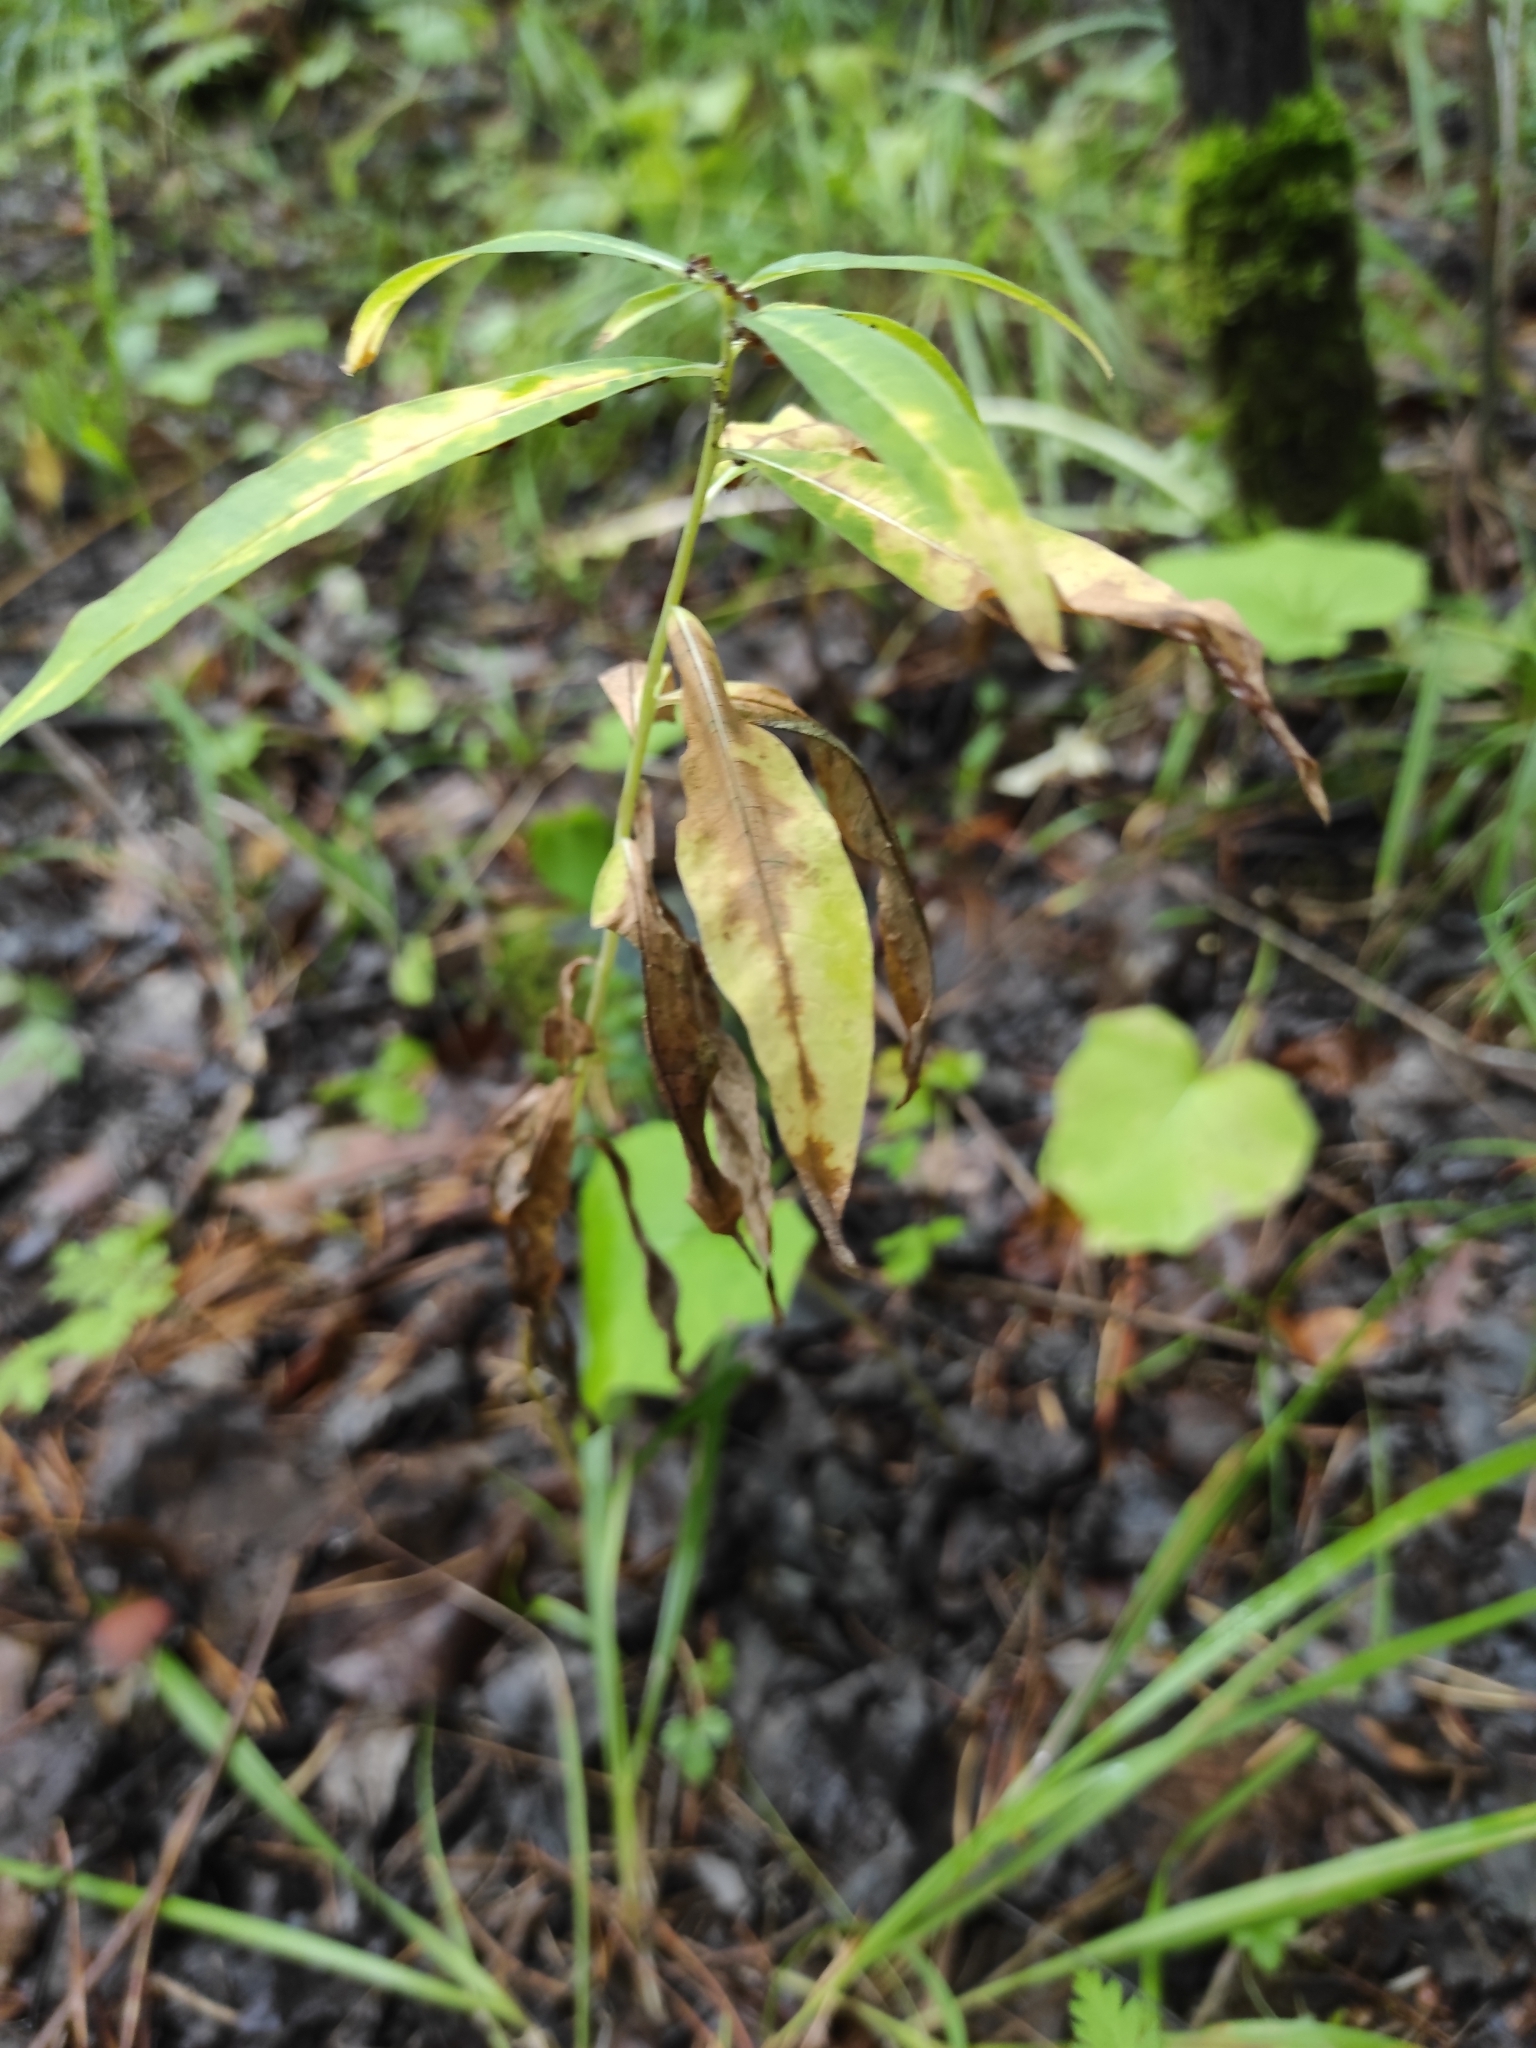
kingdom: Plantae
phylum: Tracheophyta
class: Magnoliopsida
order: Myrtales
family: Onagraceae
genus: Chamaenerion
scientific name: Chamaenerion angustifolium
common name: Fireweed
